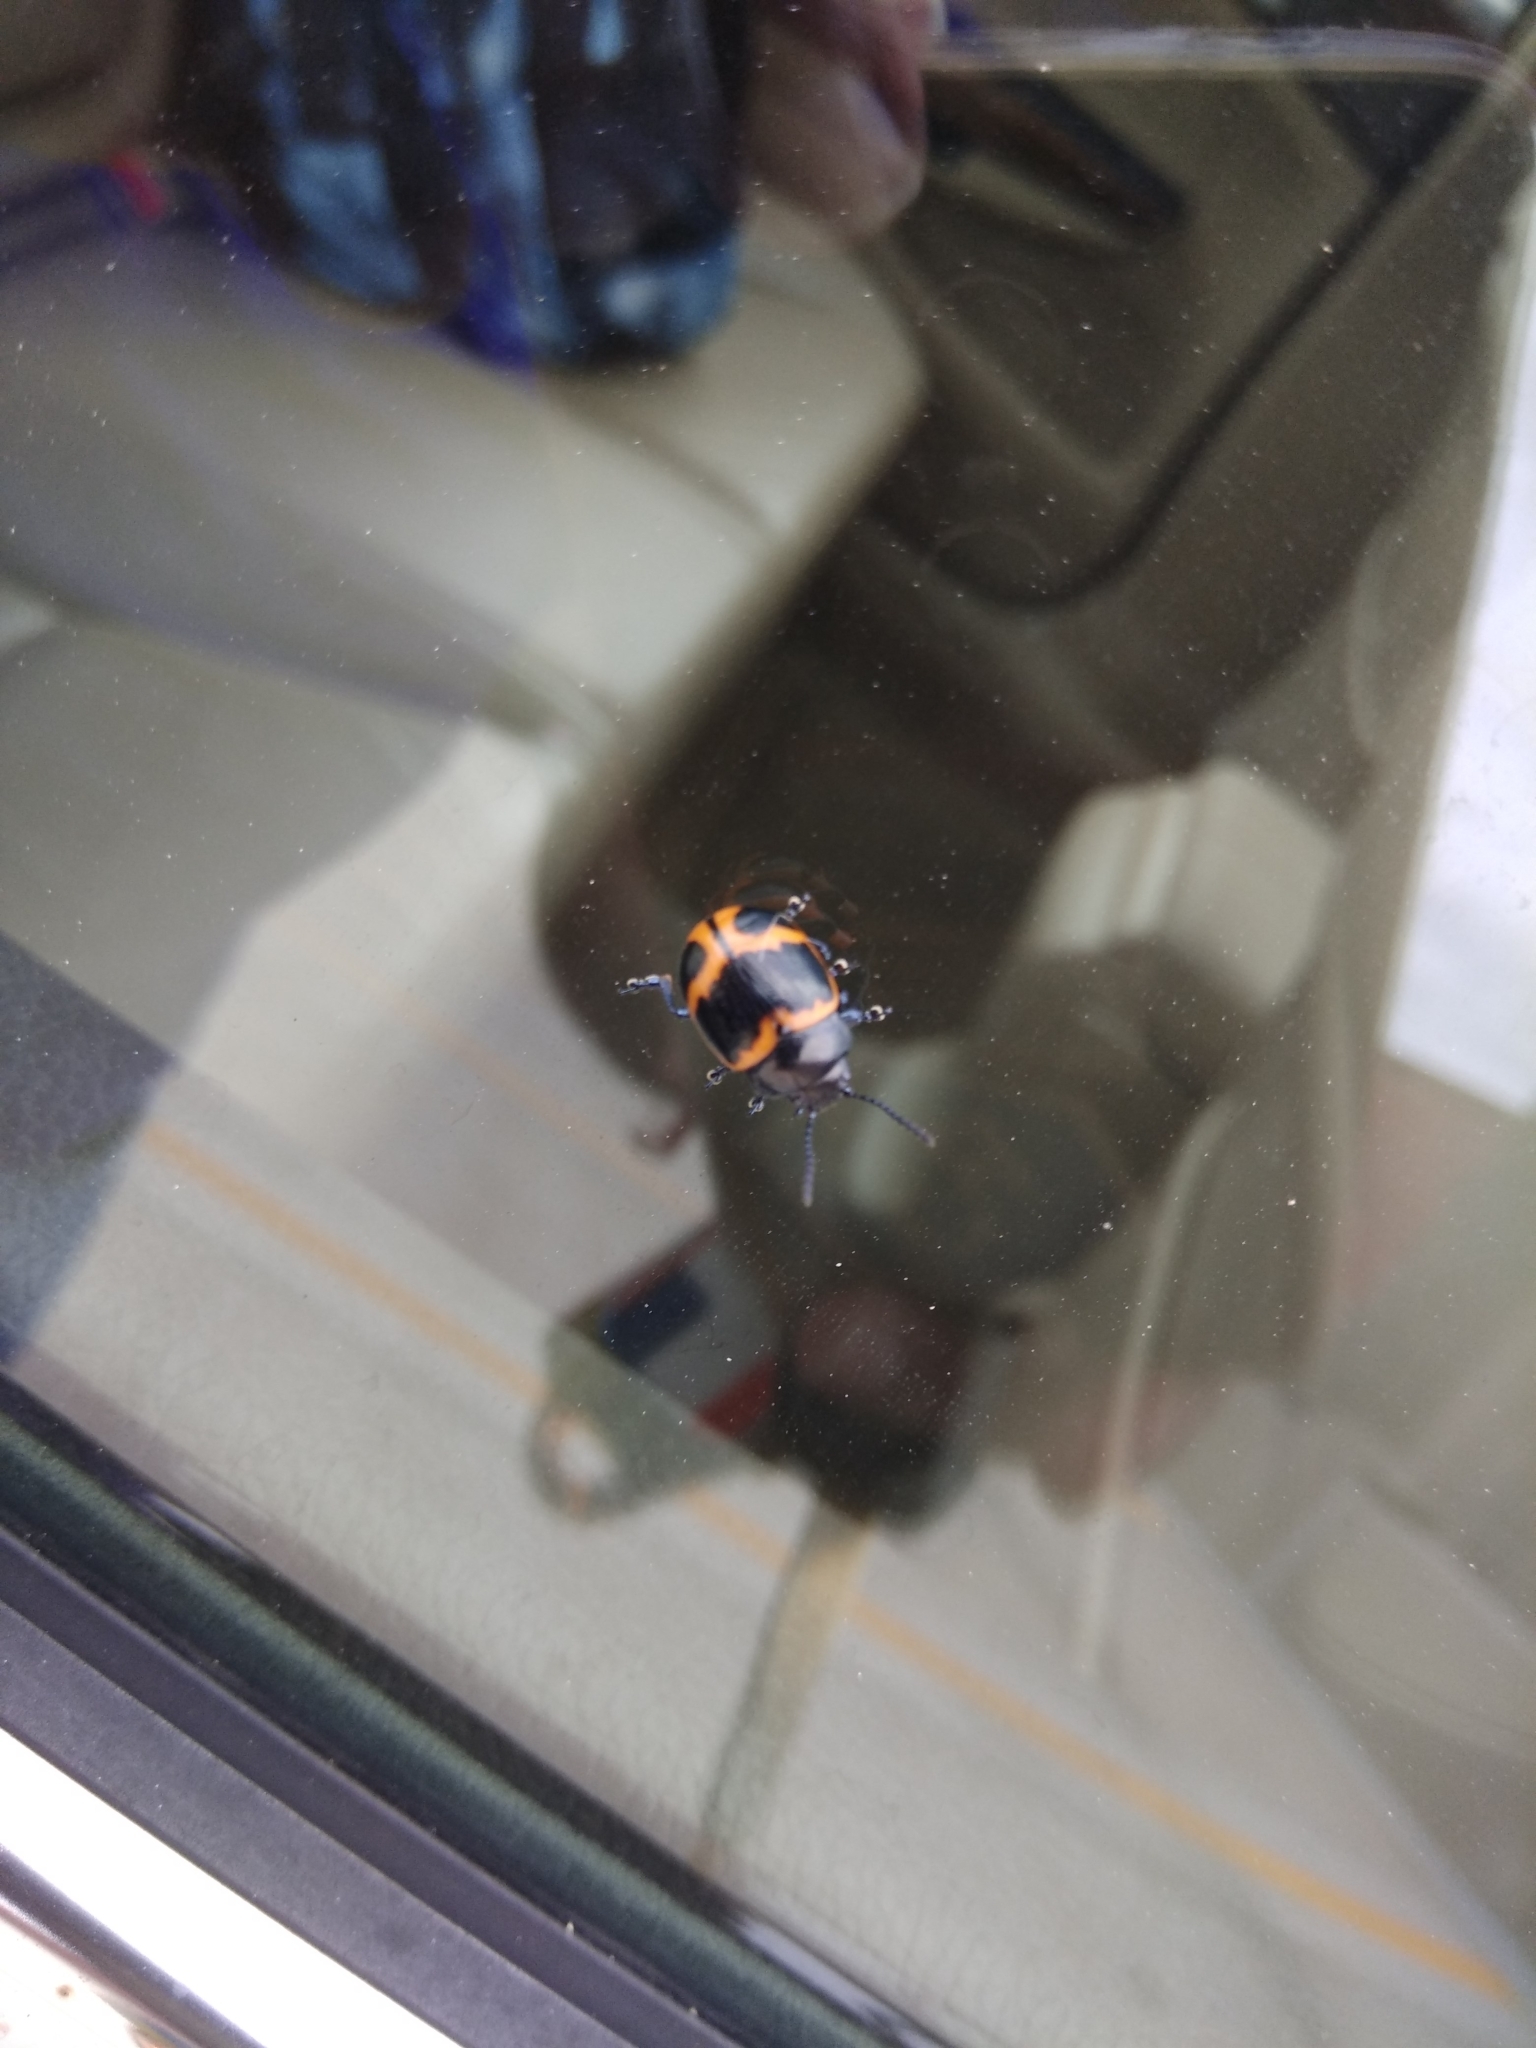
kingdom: Animalia
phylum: Arthropoda
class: Insecta
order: Coleoptera
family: Chrysomelidae
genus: Labidomera
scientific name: Labidomera clivicollis
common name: Swamp milkweed leaf beetle
